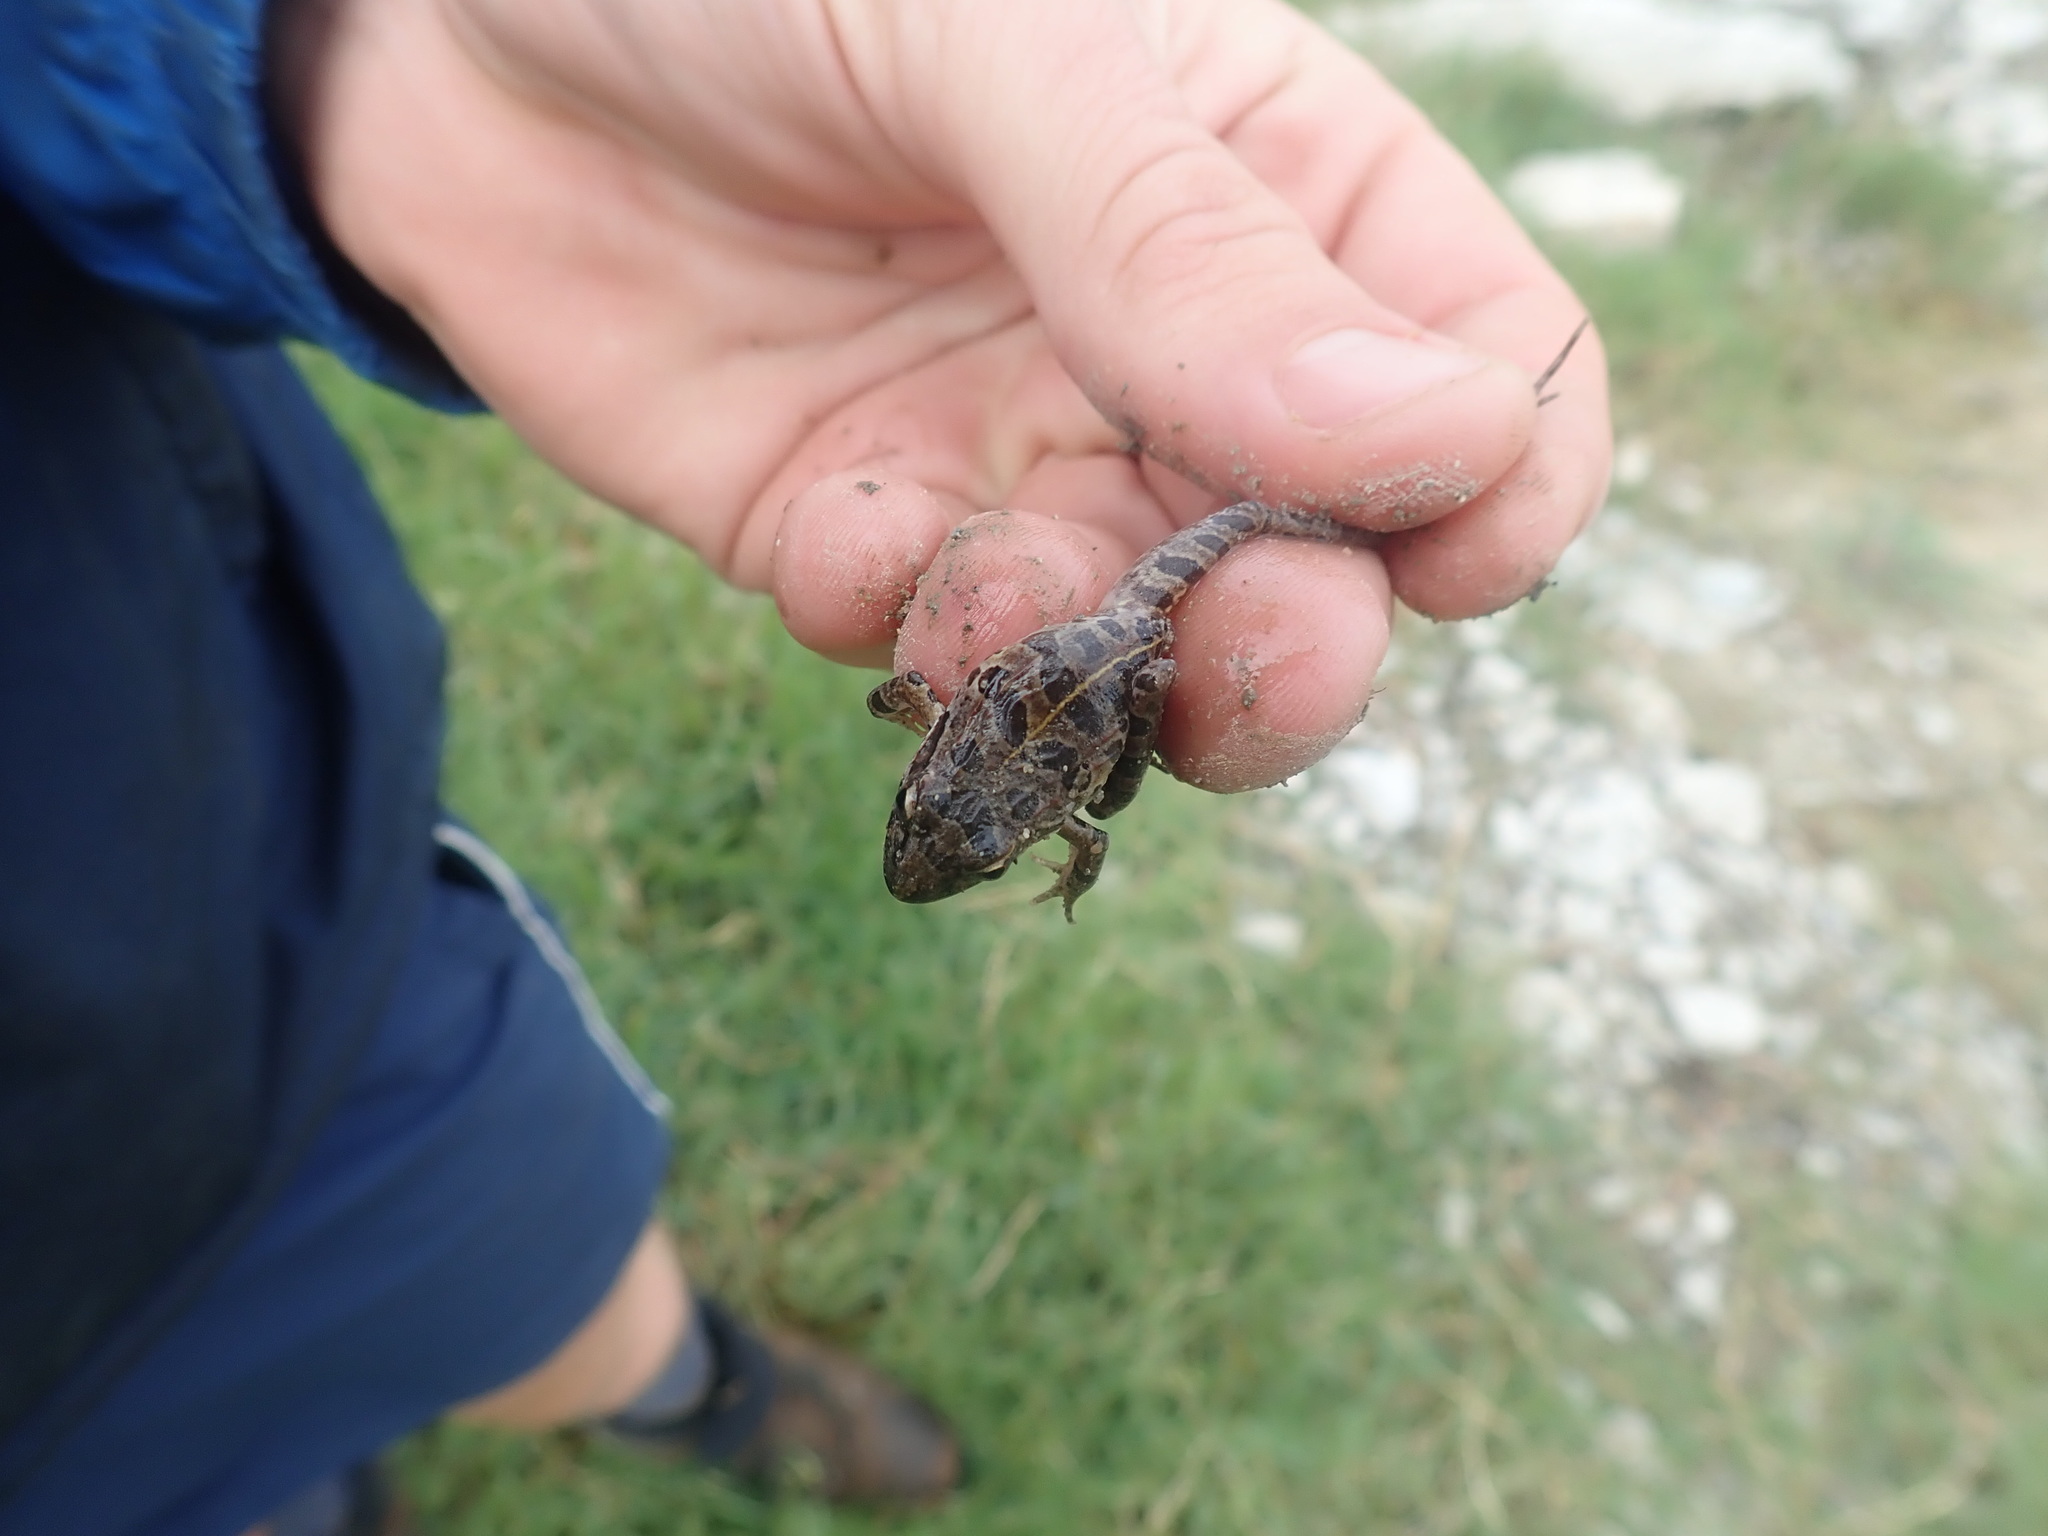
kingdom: Animalia
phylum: Chordata
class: Amphibia
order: Anura
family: Pyxicephalidae
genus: Strongylopus
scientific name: Strongylopus grayii
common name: Gray's stream frog
